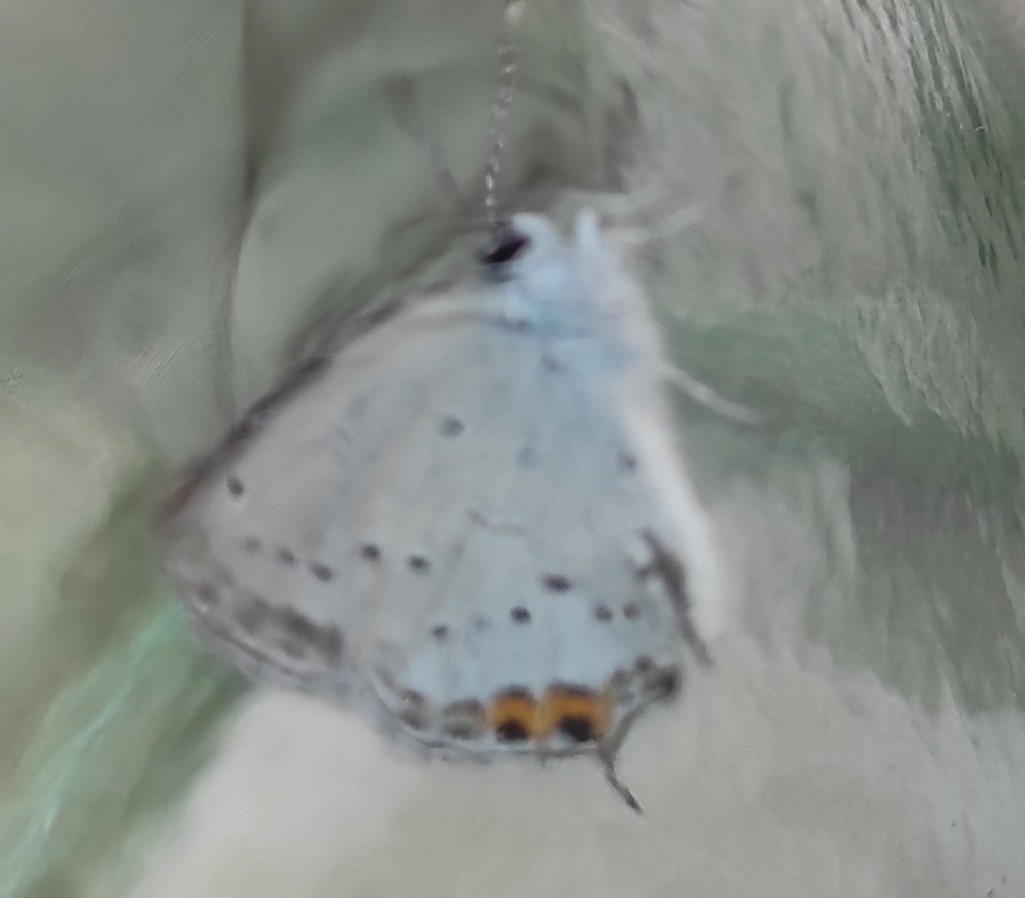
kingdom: Animalia
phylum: Arthropoda
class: Insecta
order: Lepidoptera
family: Lycaenidae
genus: Elkalyce
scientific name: Elkalyce argiades
